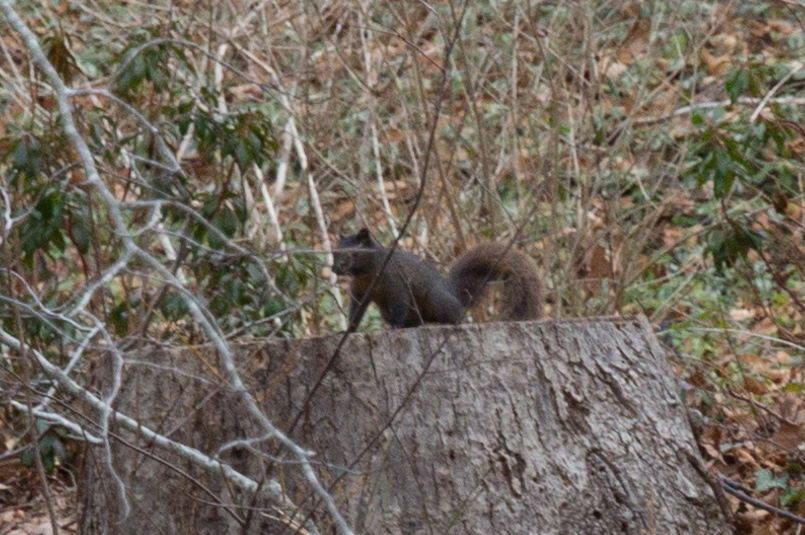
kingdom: Animalia
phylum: Chordata
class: Mammalia
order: Rodentia
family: Sciuridae
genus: Sciurus
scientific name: Sciurus carolinensis
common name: Eastern gray squirrel
